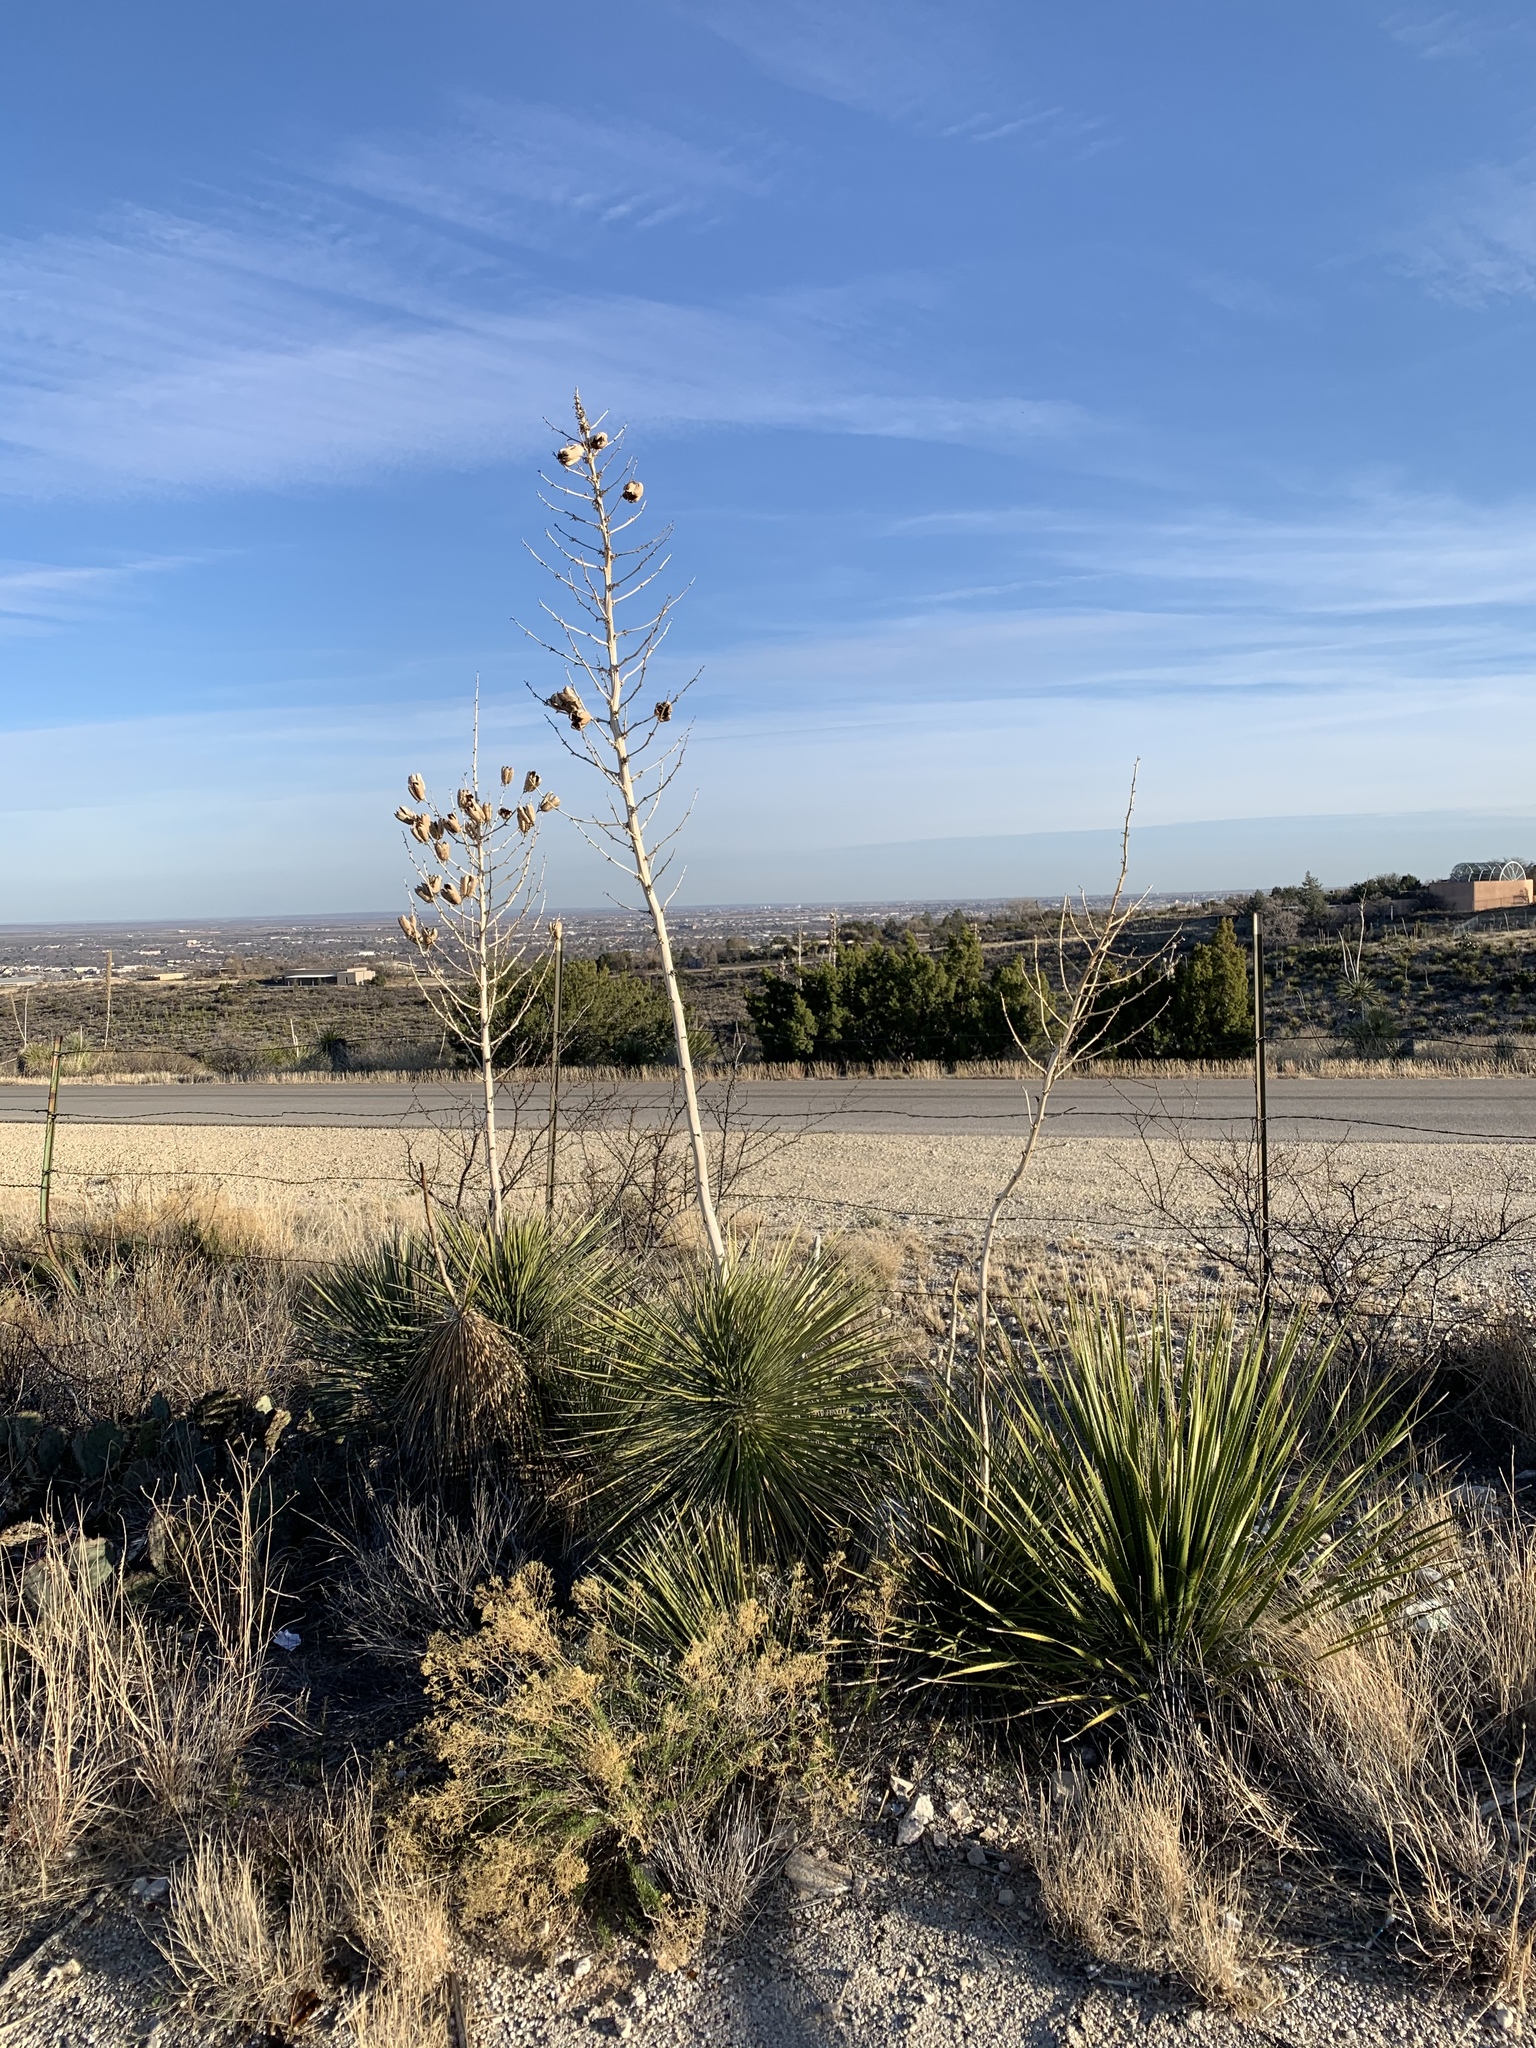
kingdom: Plantae
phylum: Tracheophyta
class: Liliopsida
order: Asparagales
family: Asparagaceae
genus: Yucca
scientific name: Yucca elata
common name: Palmella
